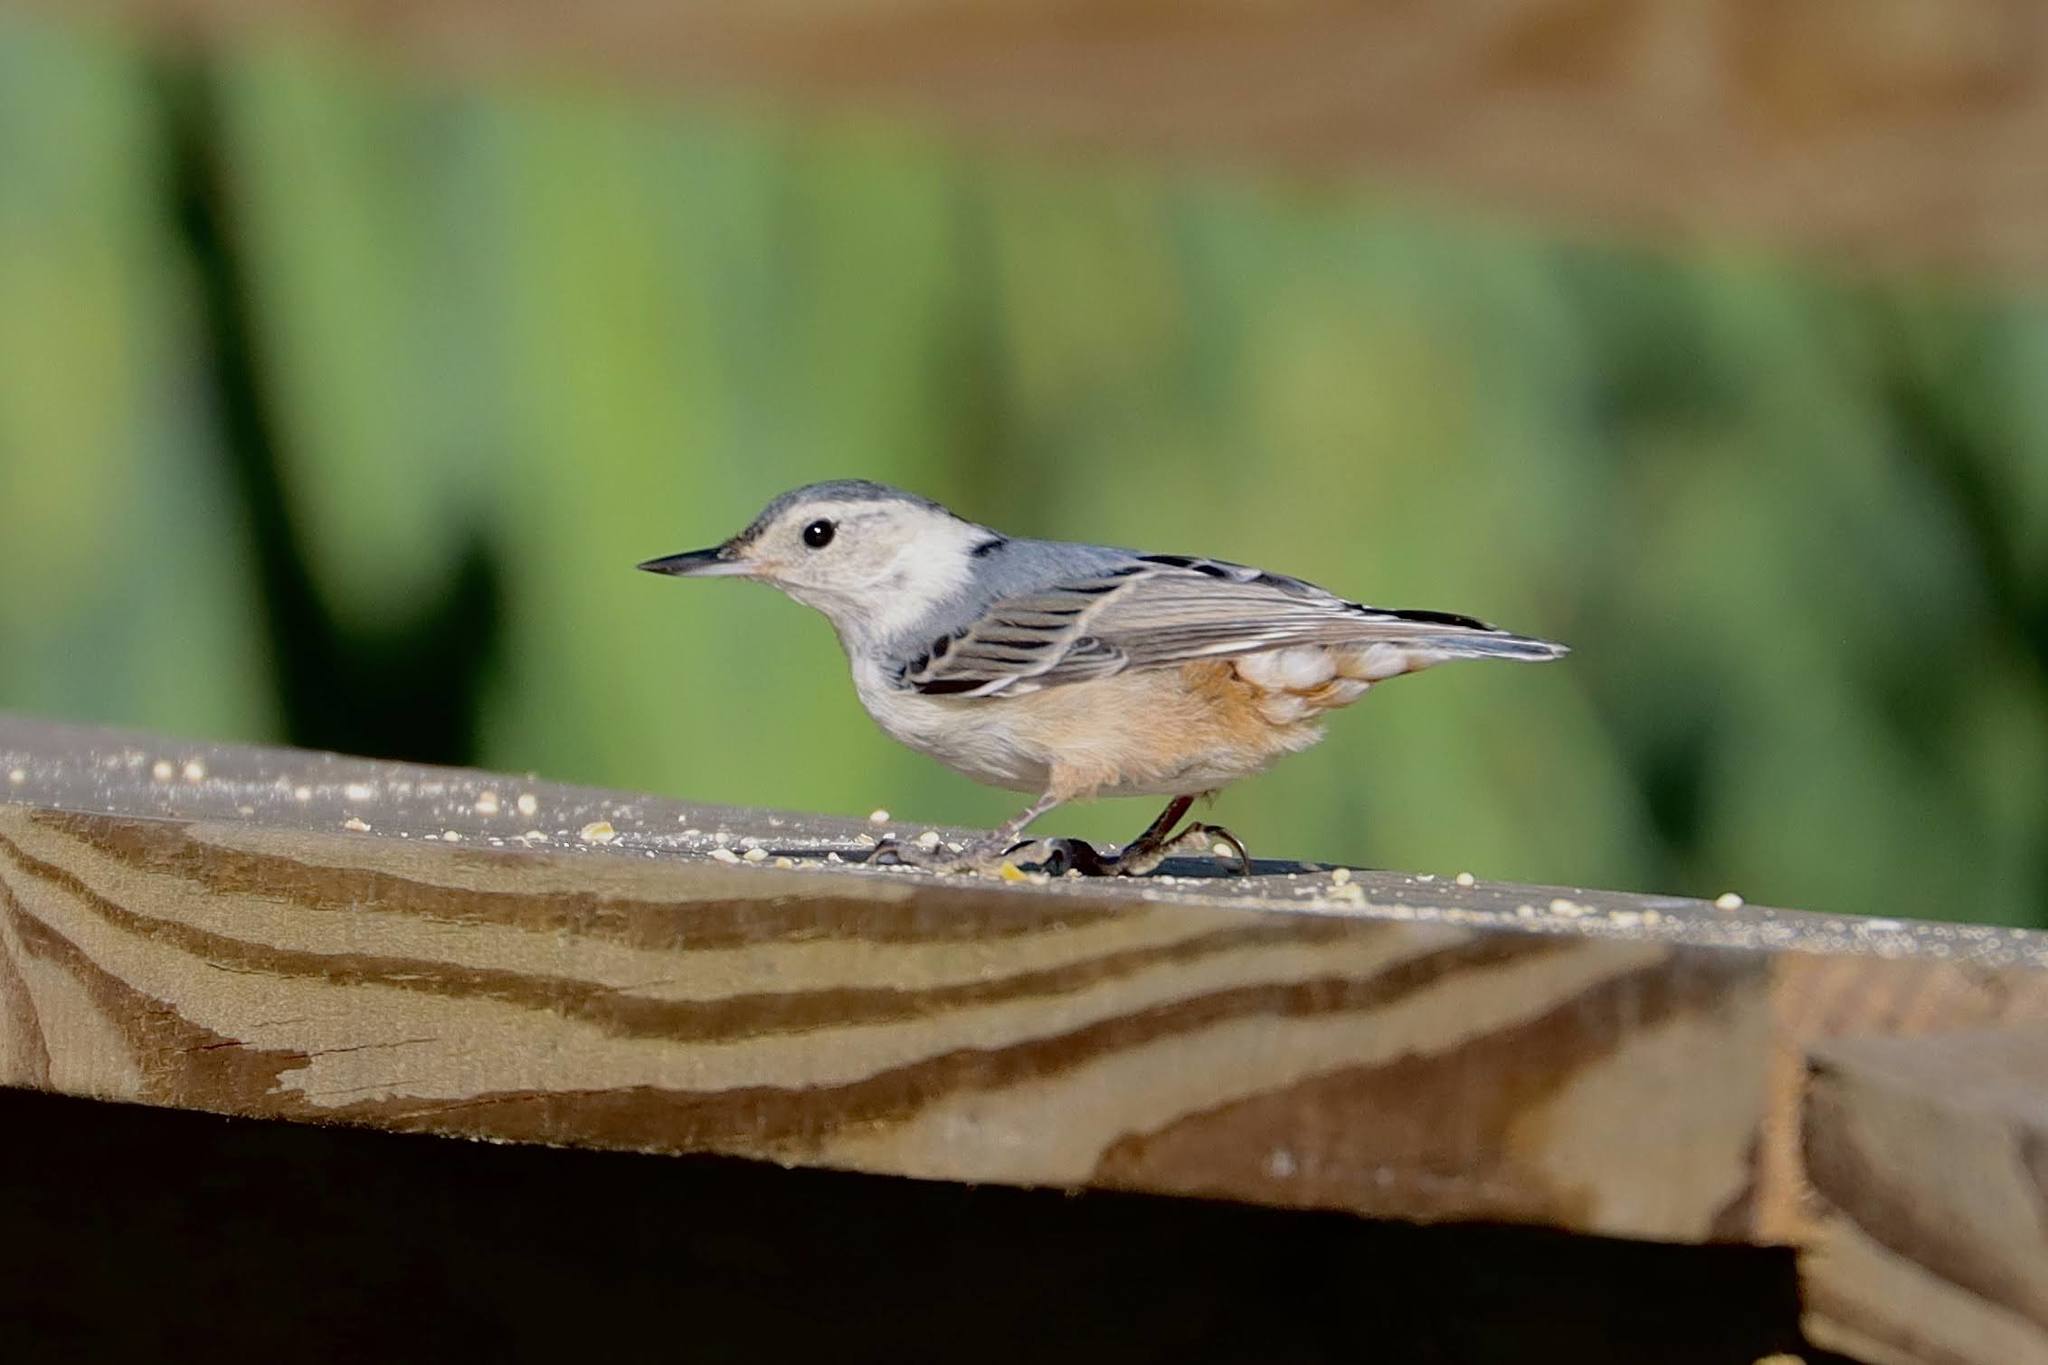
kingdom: Animalia
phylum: Chordata
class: Aves
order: Passeriformes
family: Sittidae
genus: Sitta
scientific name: Sitta carolinensis
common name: White-breasted nuthatch
